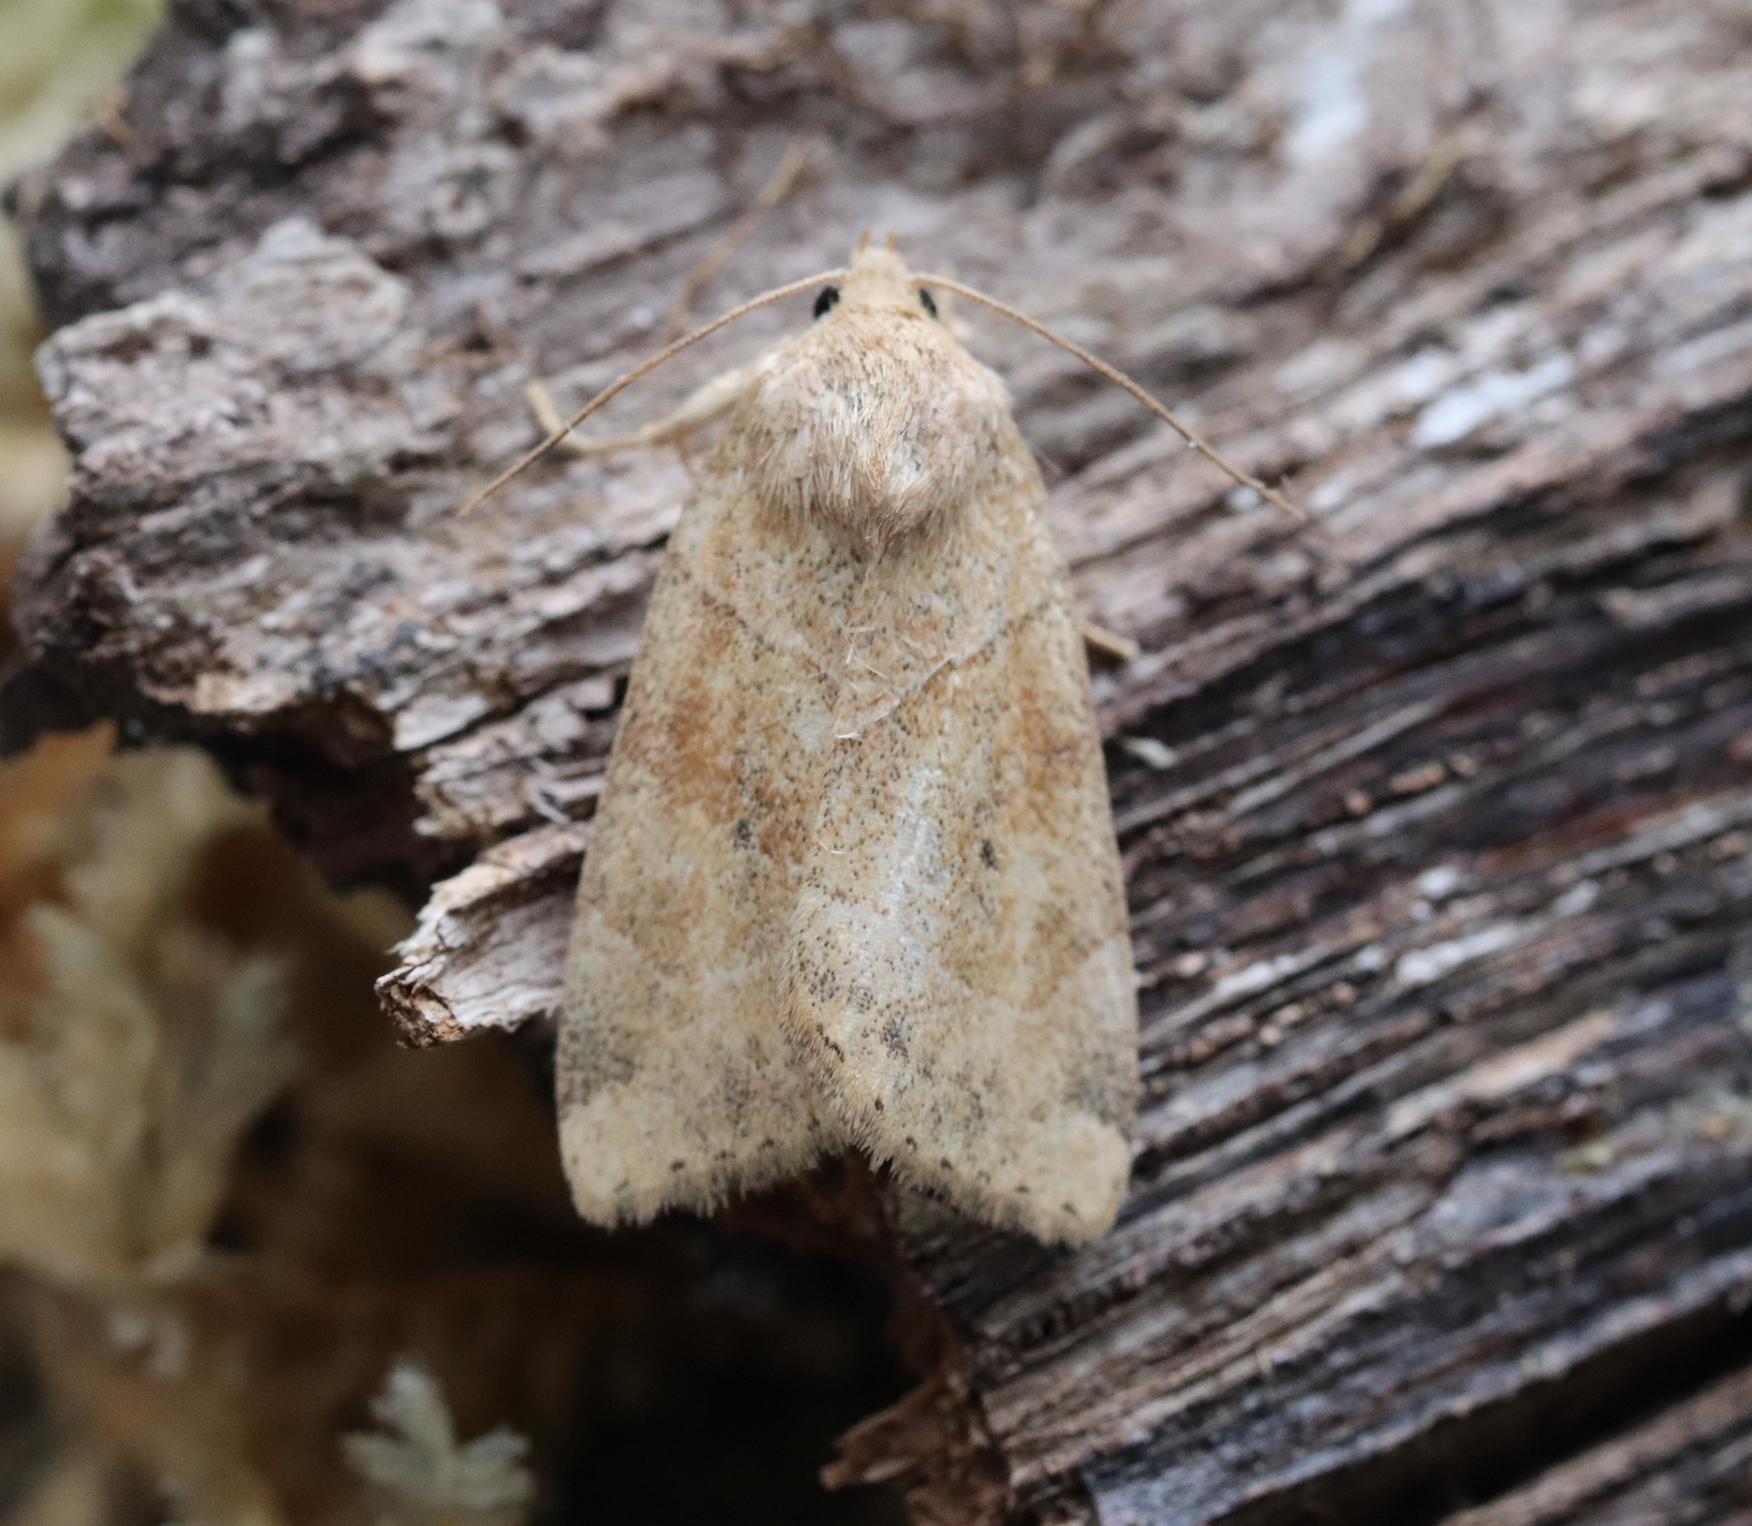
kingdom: Animalia
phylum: Arthropoda
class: Insecta
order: Lepidoptera
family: Noctuidae
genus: Cosmia
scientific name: Cosmia trapezina
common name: Dun-bar
